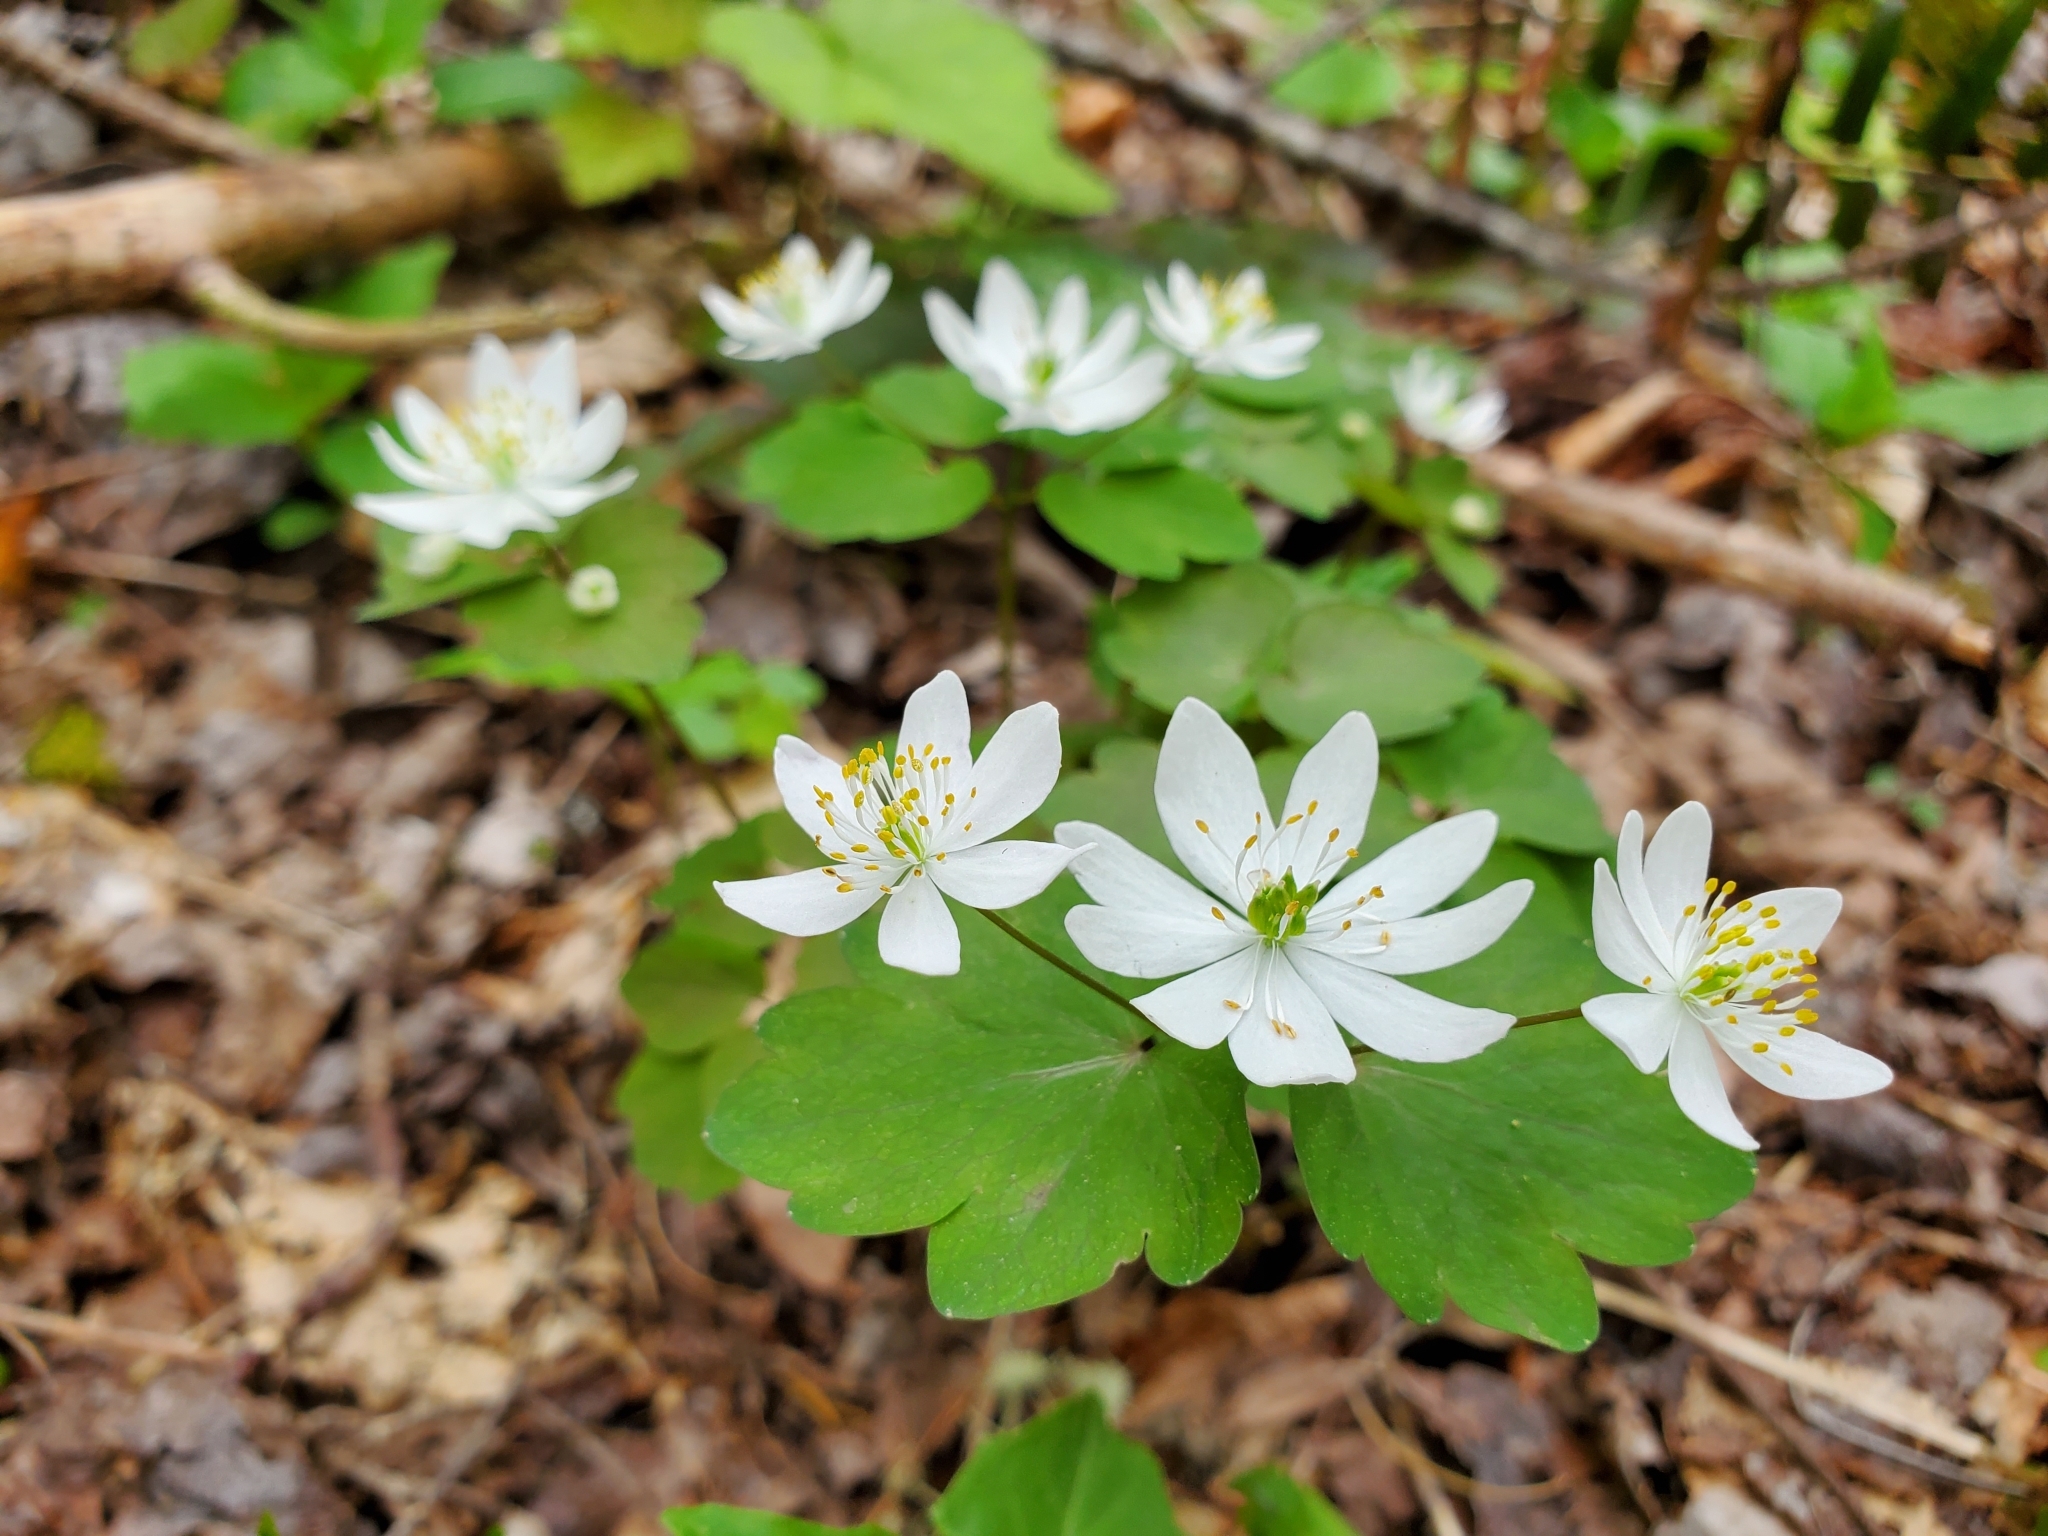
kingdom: Plantae
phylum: Tracheophyta
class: Magnoliopsida
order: Ranunculales
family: Ranunculaceae
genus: Thalictrum
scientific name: Thalictrum thalictroides
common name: Rue-anemone
